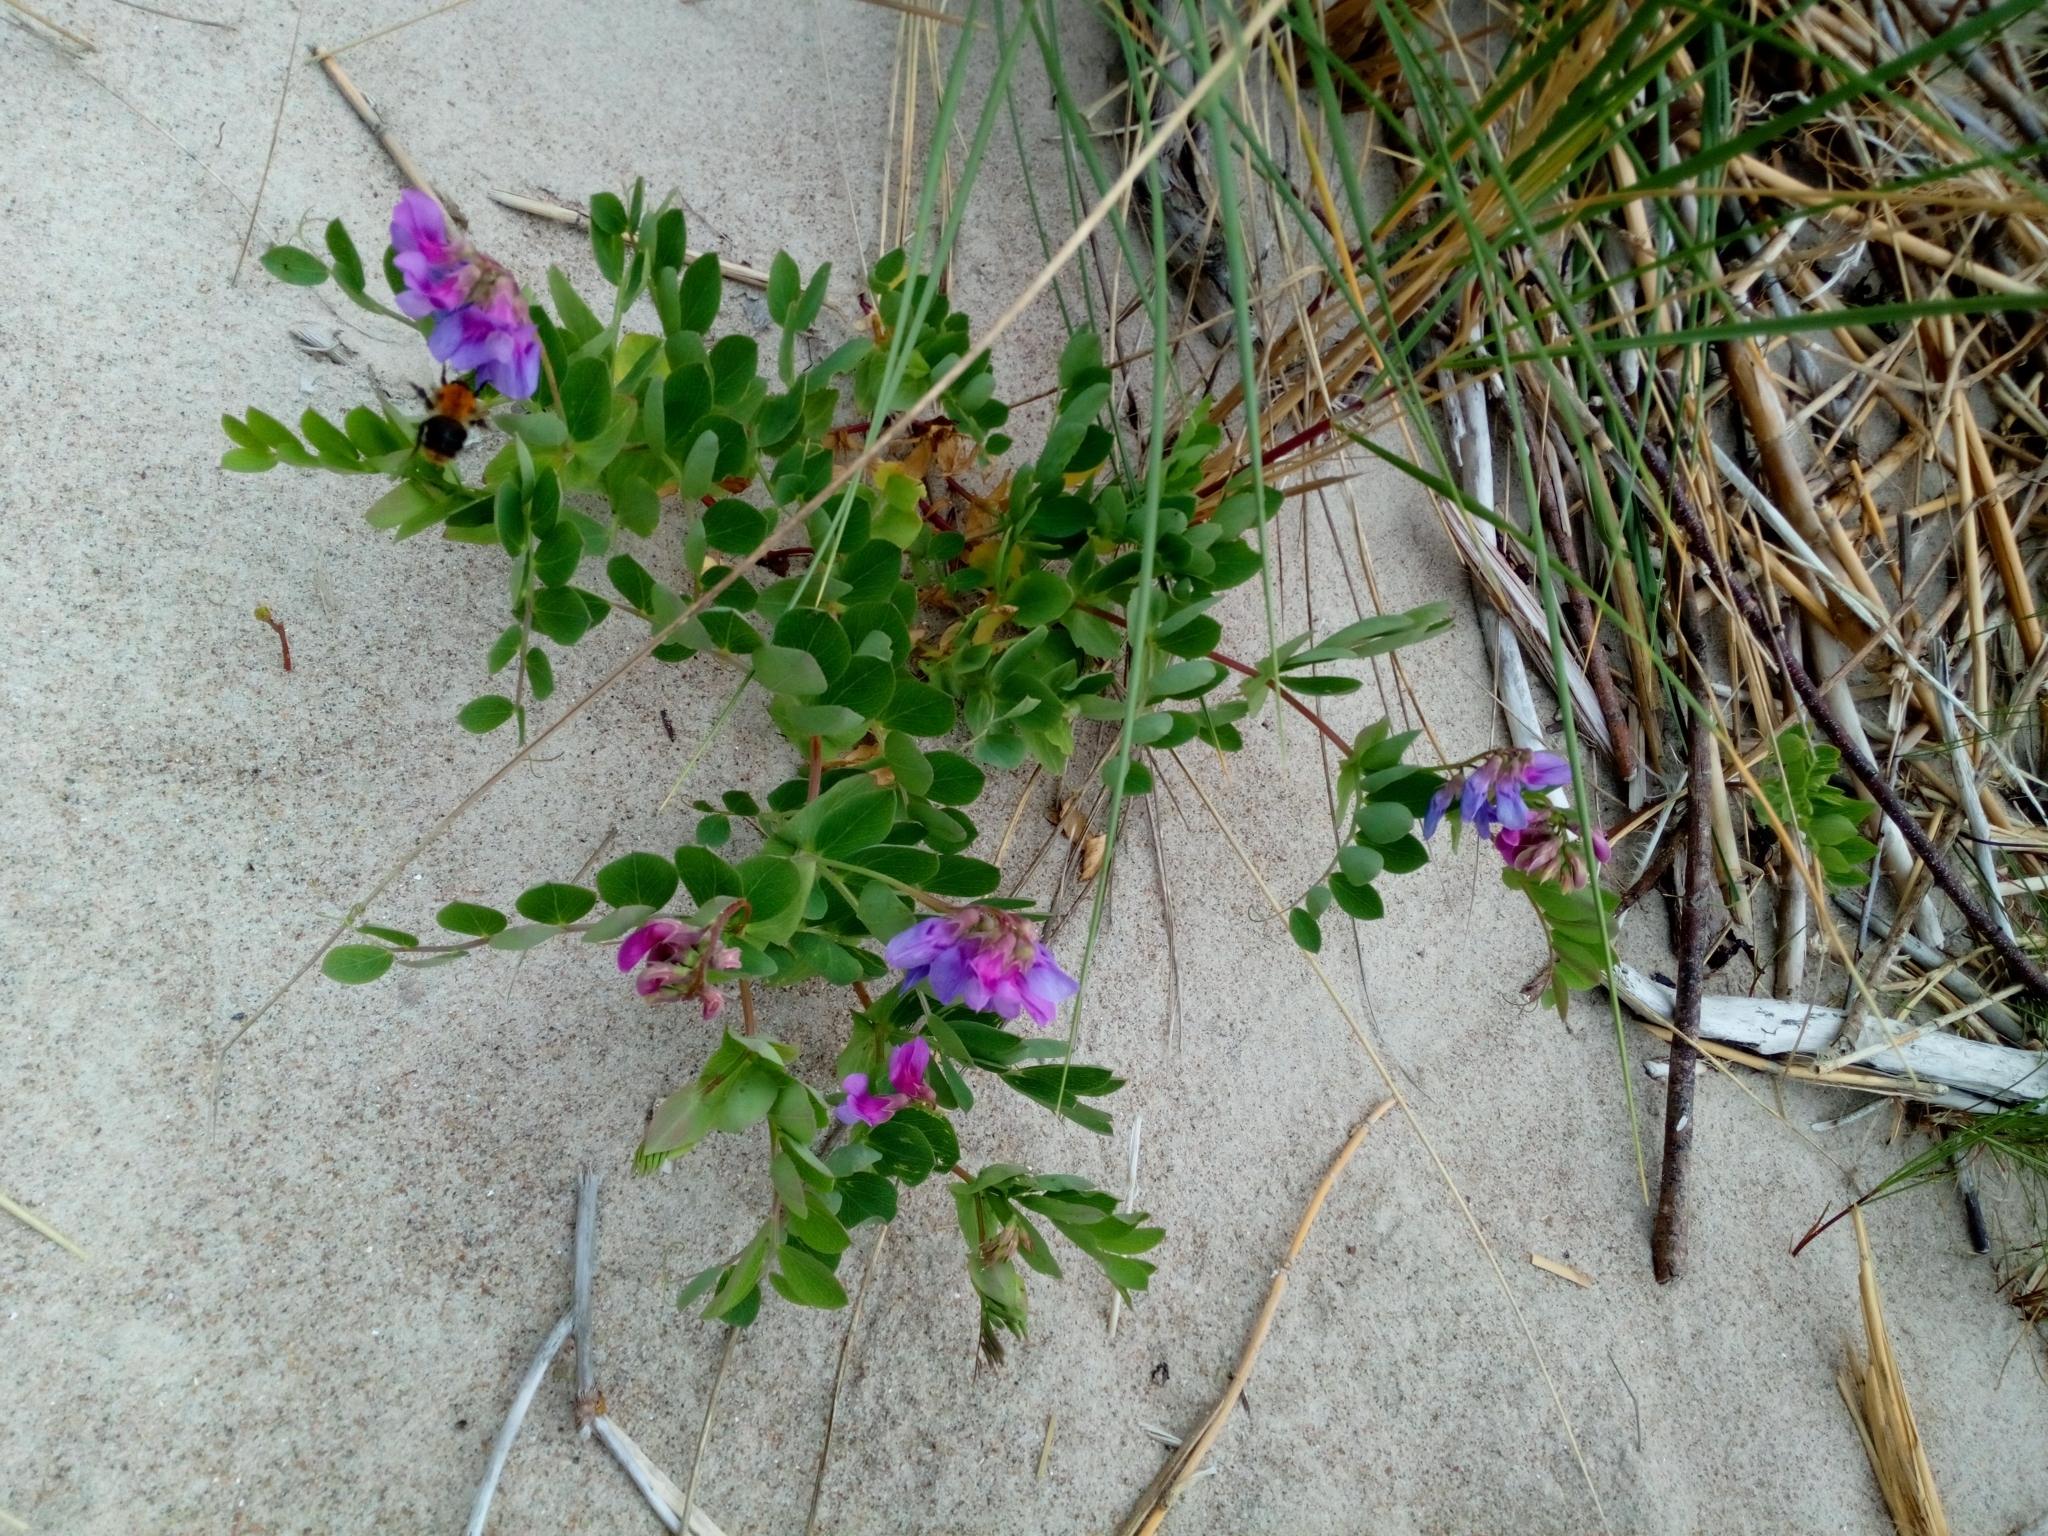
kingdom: Plantae
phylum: Tracheophyta
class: Magnoliopsida
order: Fabales
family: Fabaceae
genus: Lathyrus
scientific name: Lathyrus japonicus
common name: Sea pea
